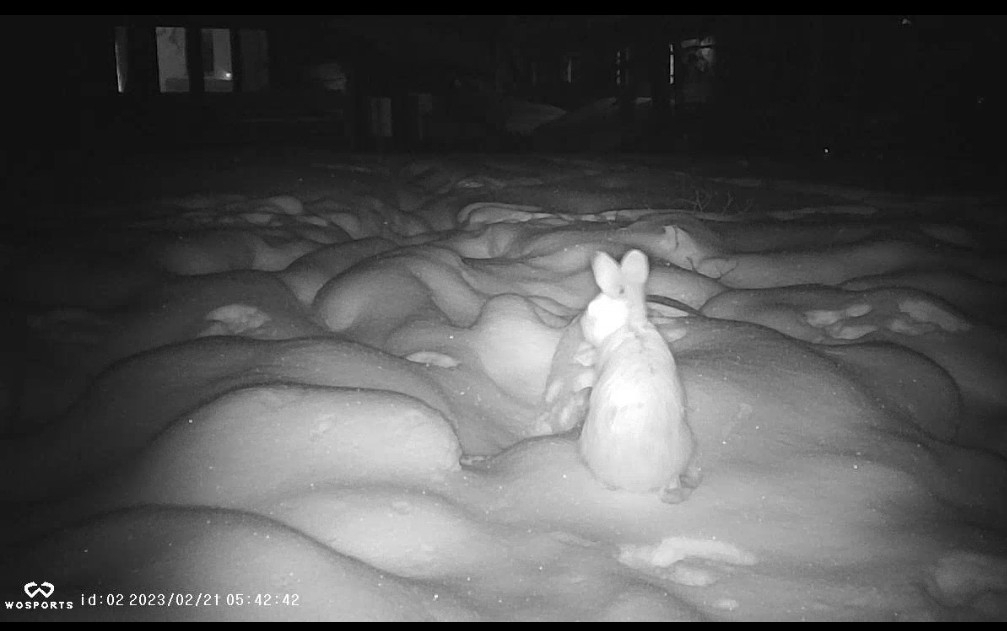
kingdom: Animalia
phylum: Chordata
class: Mammalia
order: Lagomorpha
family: Leporidae
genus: Lepus
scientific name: Lepus americanus
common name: Snowshoe hare
